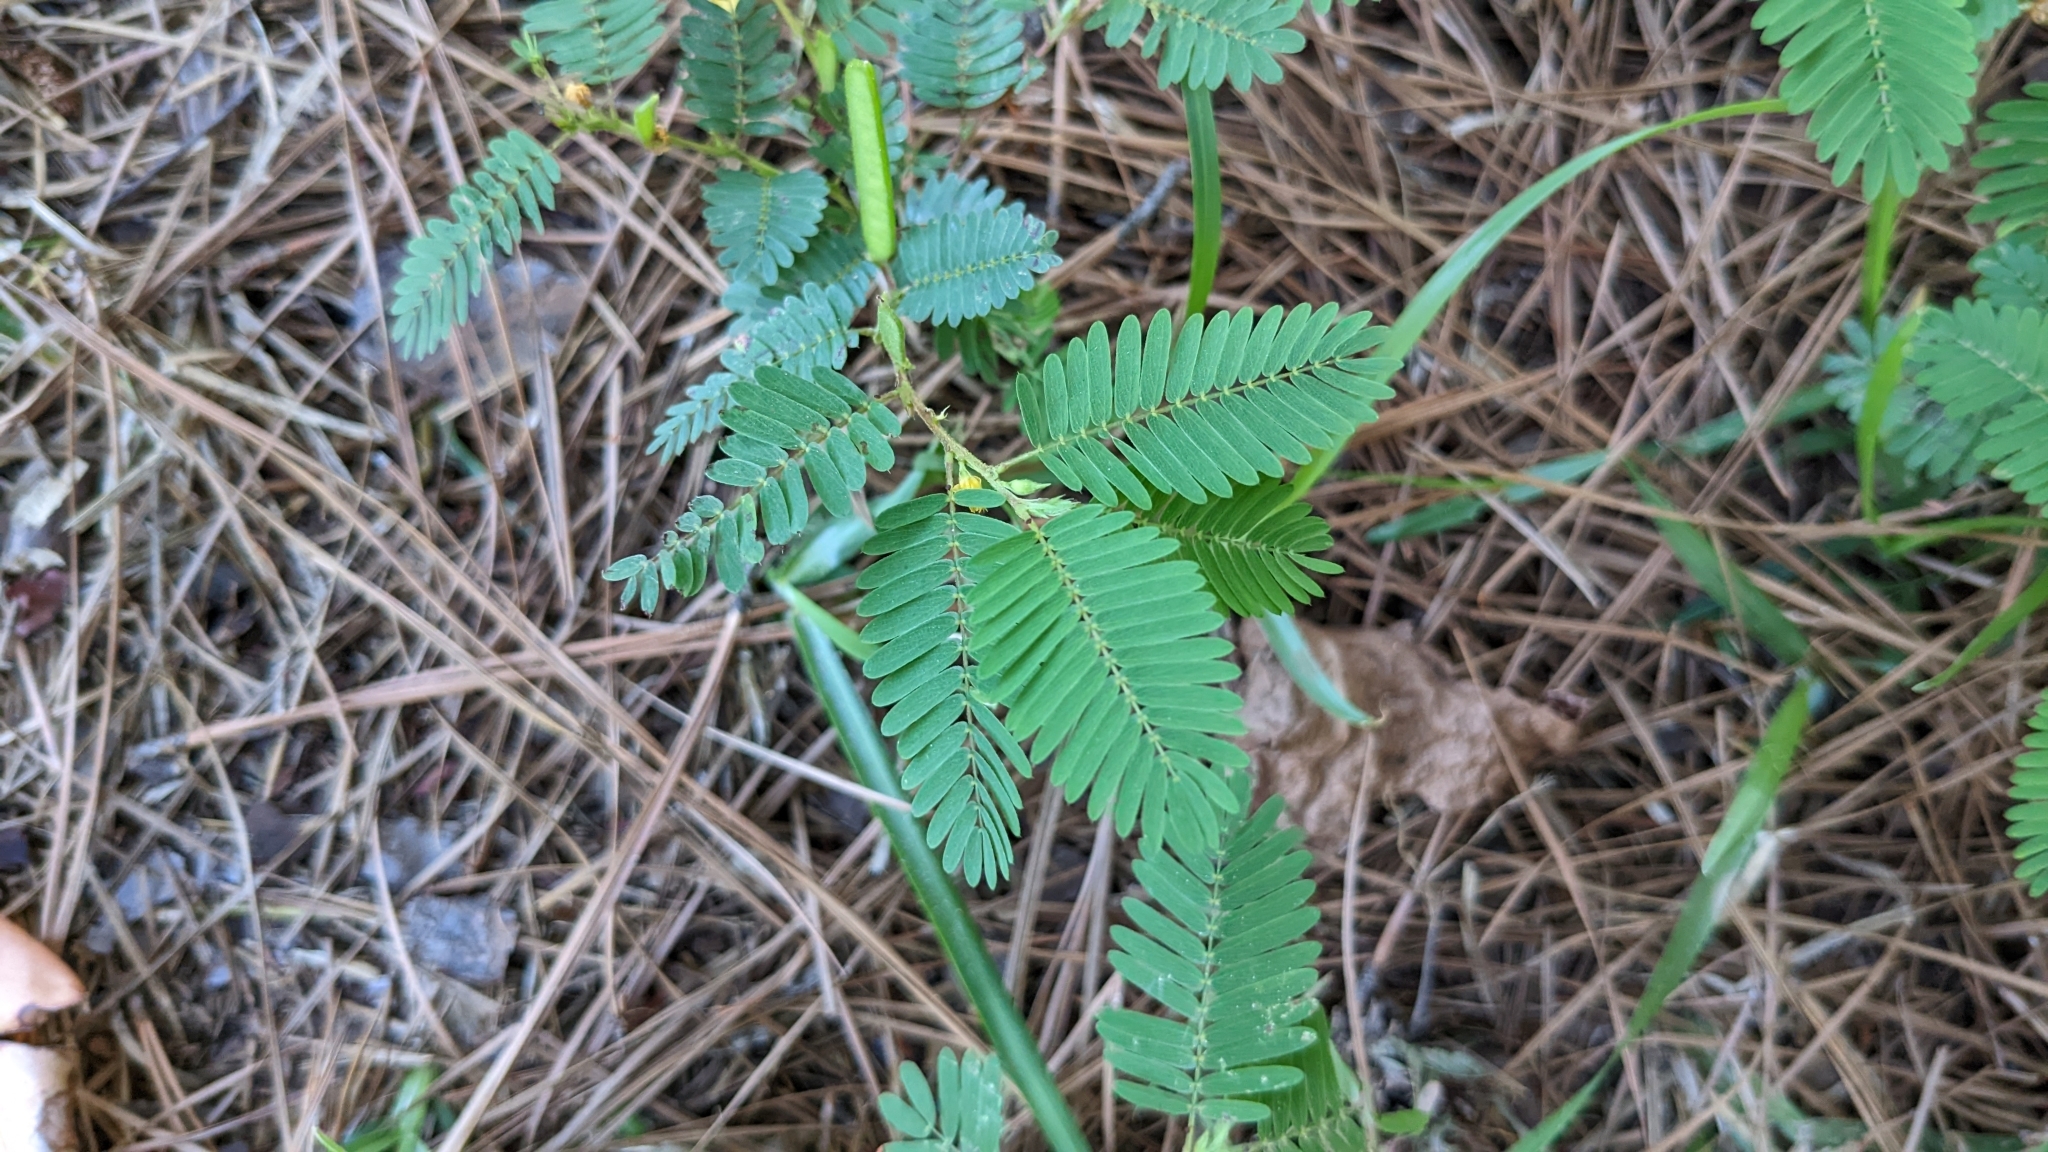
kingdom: Plantae
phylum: Tracheophyta
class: Magnoliopsida
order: Fabales
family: Fabaceae
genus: Chamaecrista
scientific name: Chamaecrista nictitans
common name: Sensitive cassia
